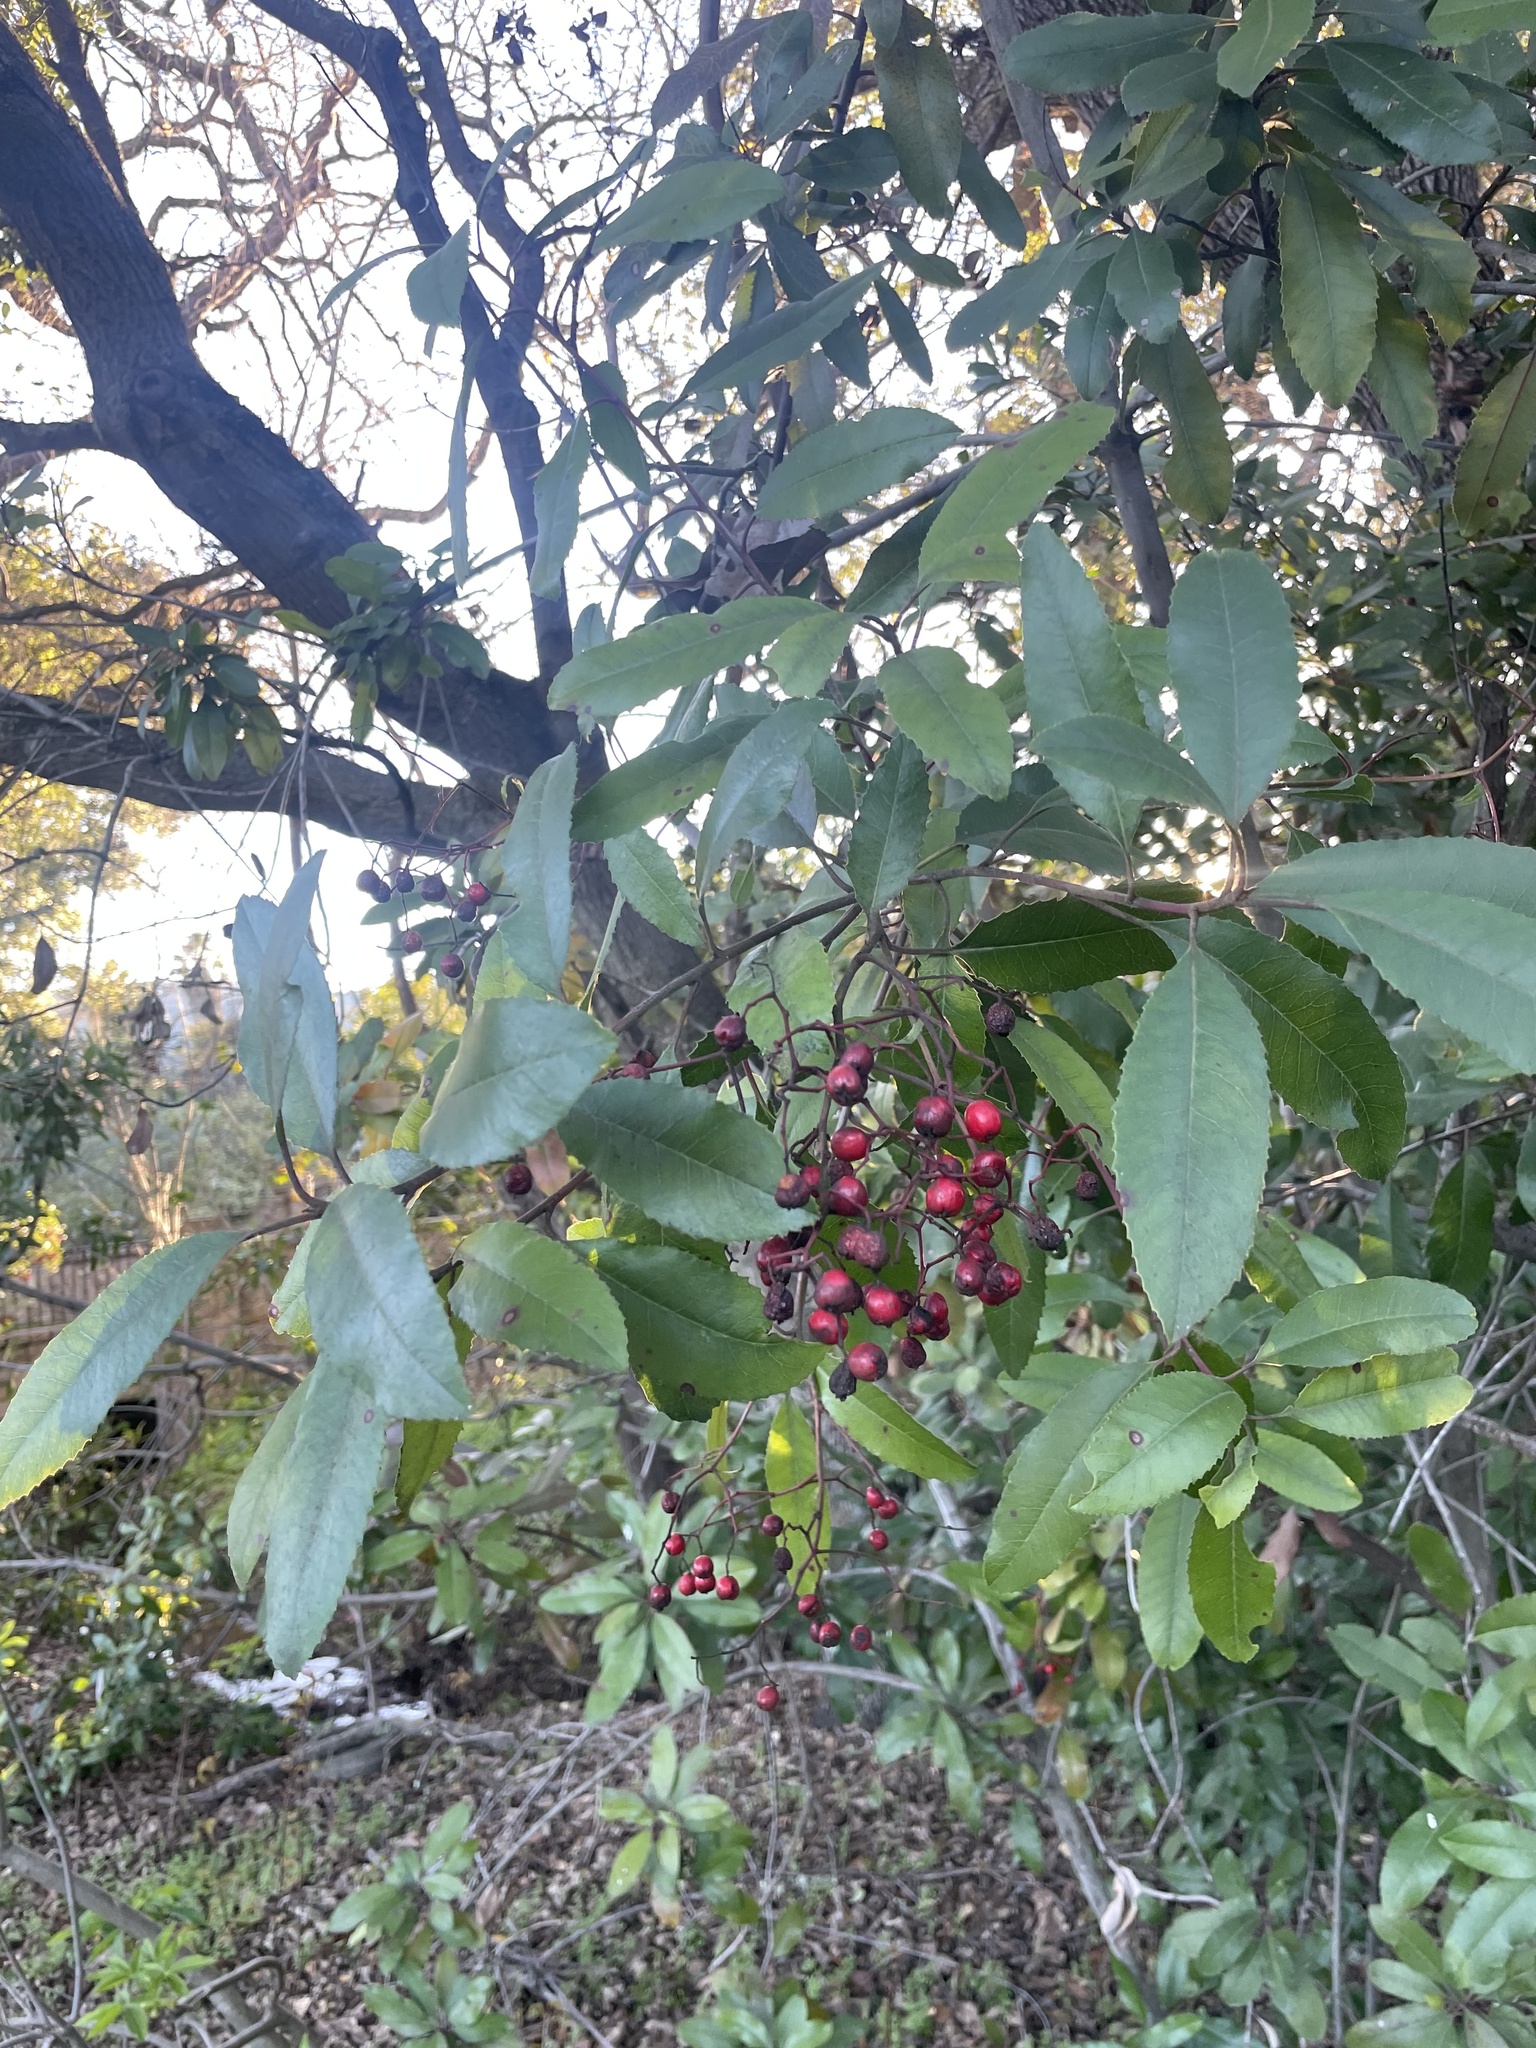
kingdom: Plantae
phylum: Tracheophyta
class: Magnoliopsida
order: Rosales
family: Rosaceae
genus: Heteromeles
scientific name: Heteromeles arbutifolia
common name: California-holly
